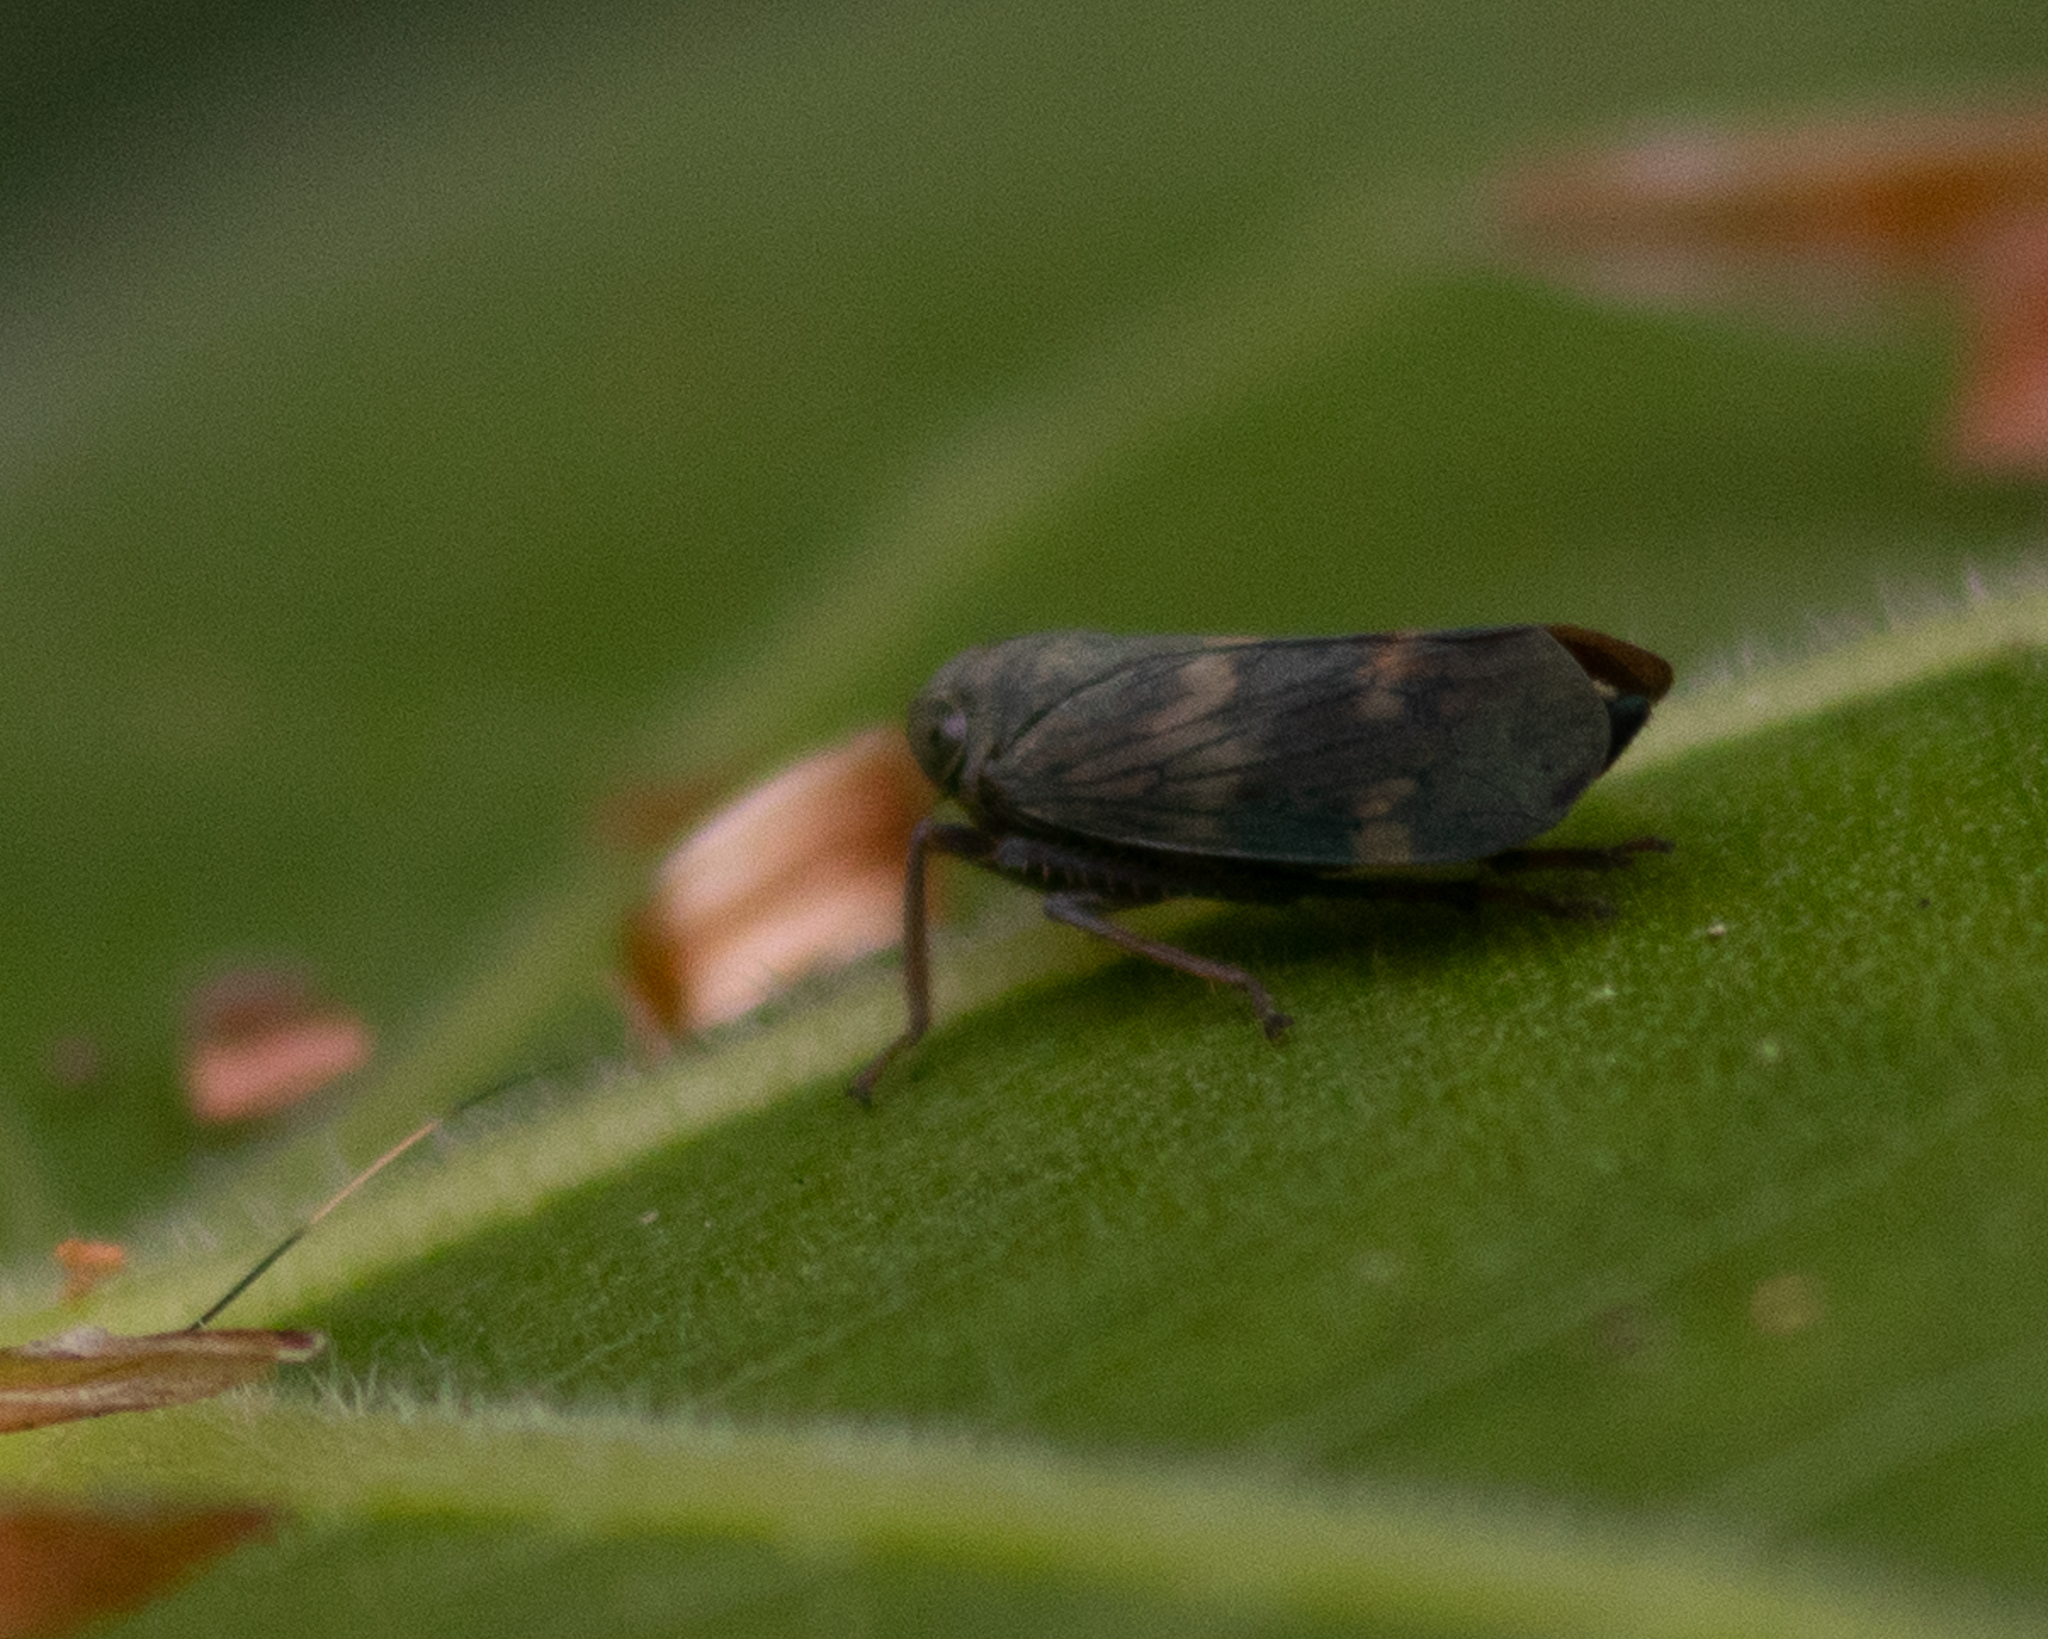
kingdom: Animalia
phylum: Arthropoda
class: Insecta
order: Hemiptera
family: Cicadellidae
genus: Jikradia
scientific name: Jikradia olitoria
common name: Coppery leafhopper
